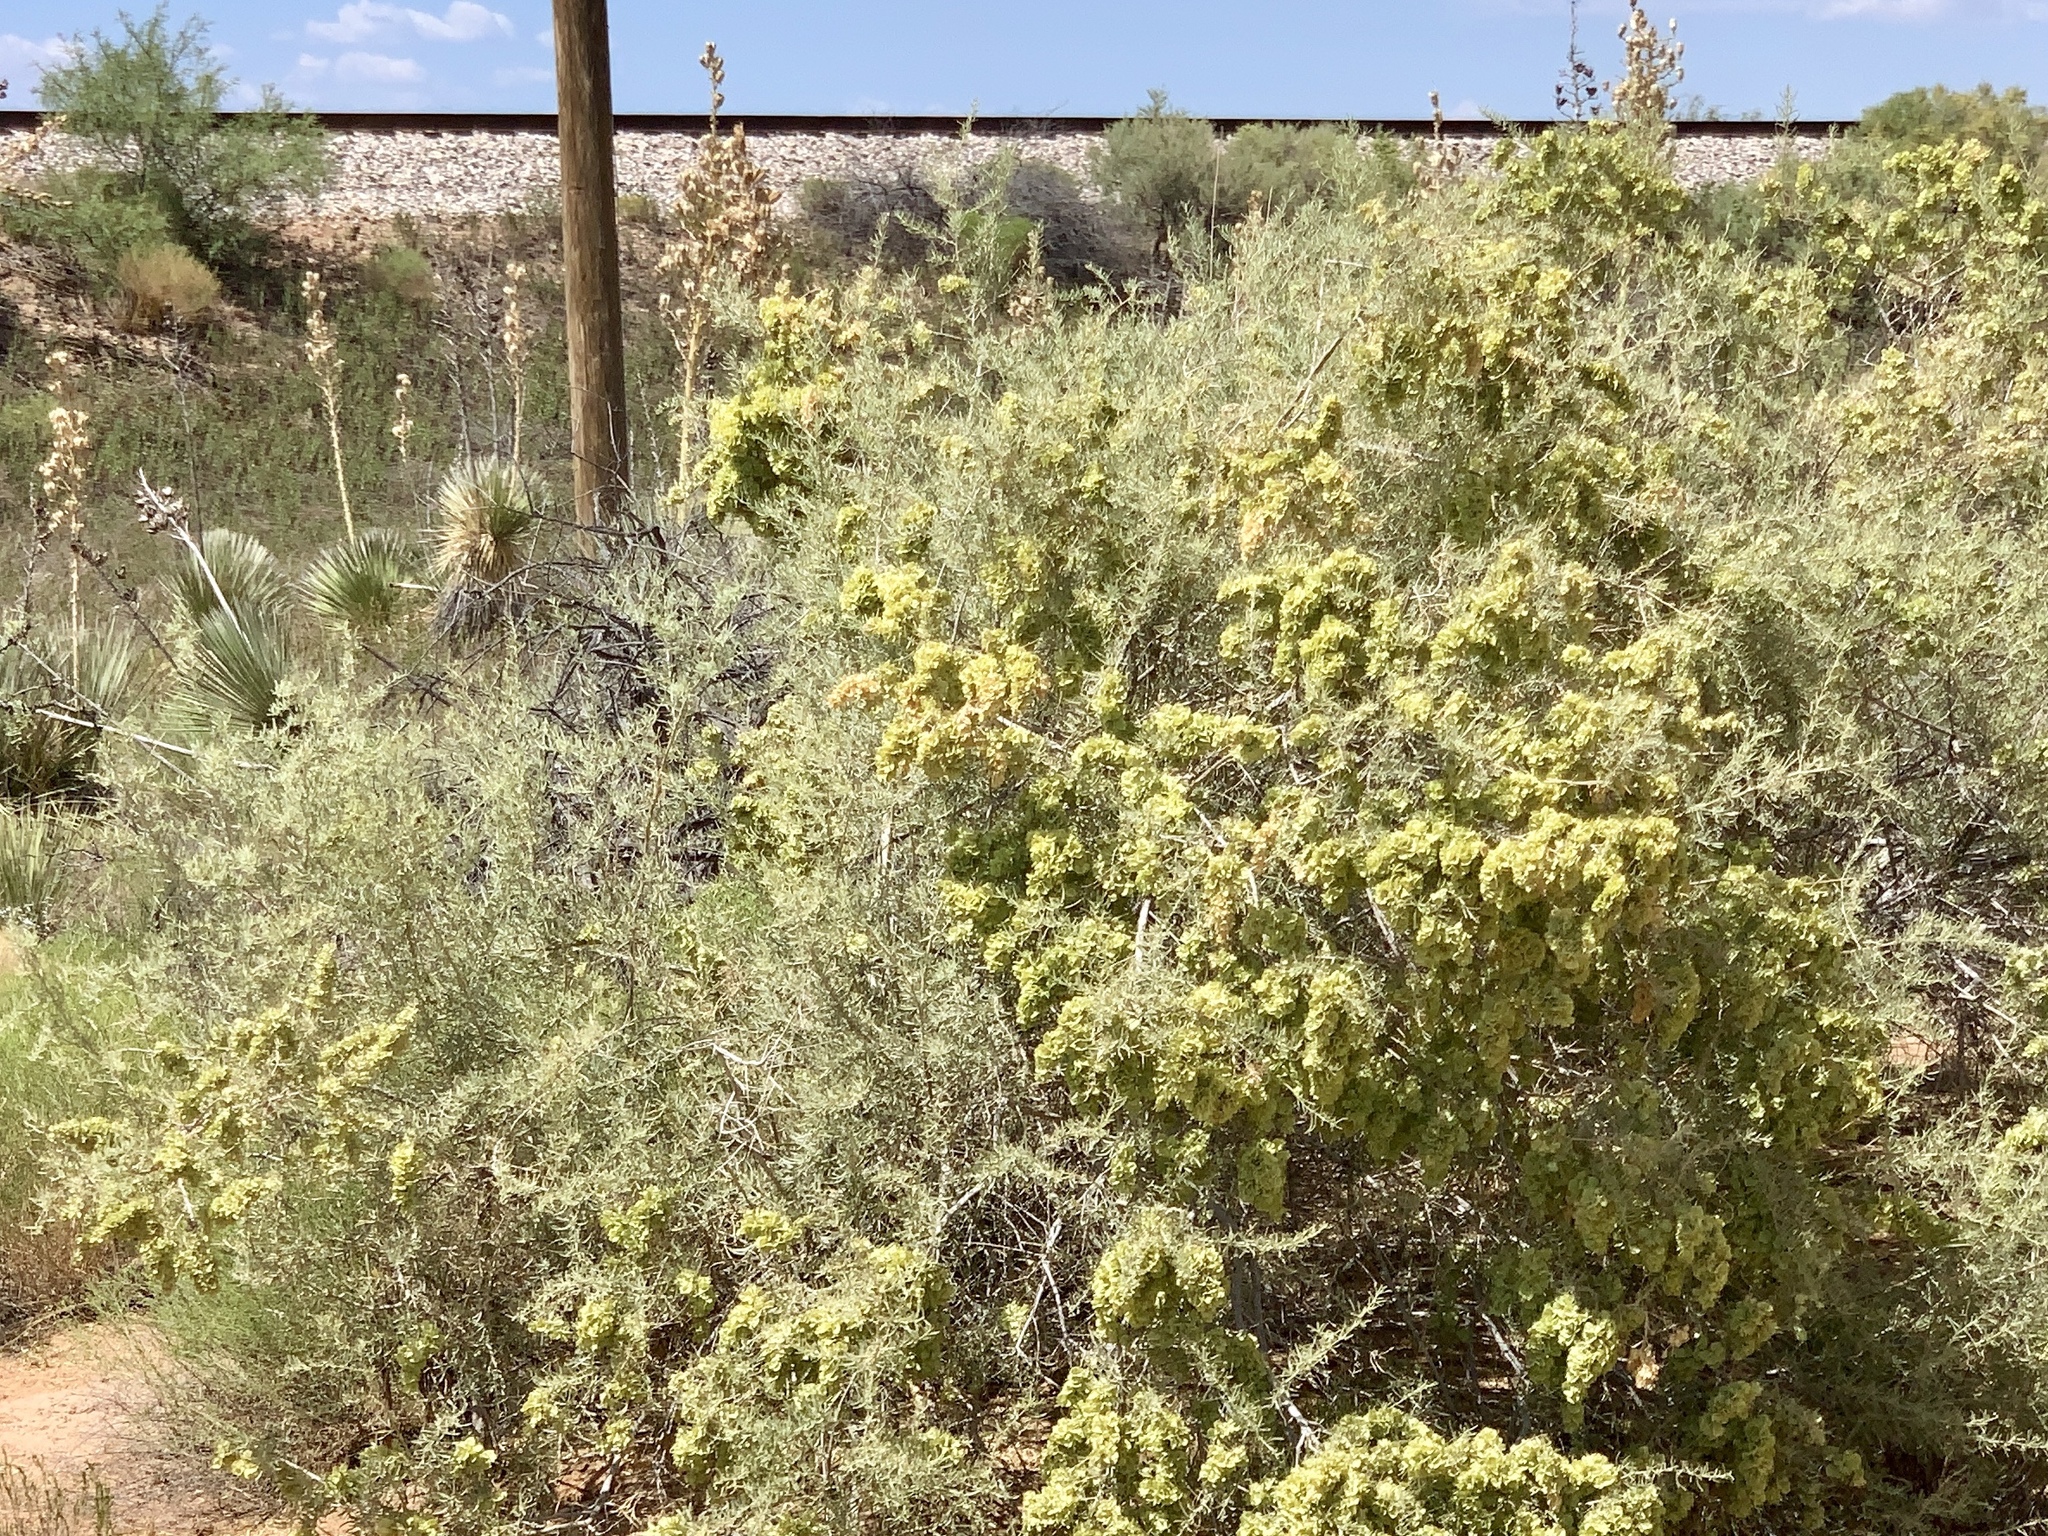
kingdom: Plantae
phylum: Tracheophyta
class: Magnoliopsida
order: Caryophyllales
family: Amaranthaceae
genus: Atriplex
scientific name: Atriplex canescens
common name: Four-wing saltbush
